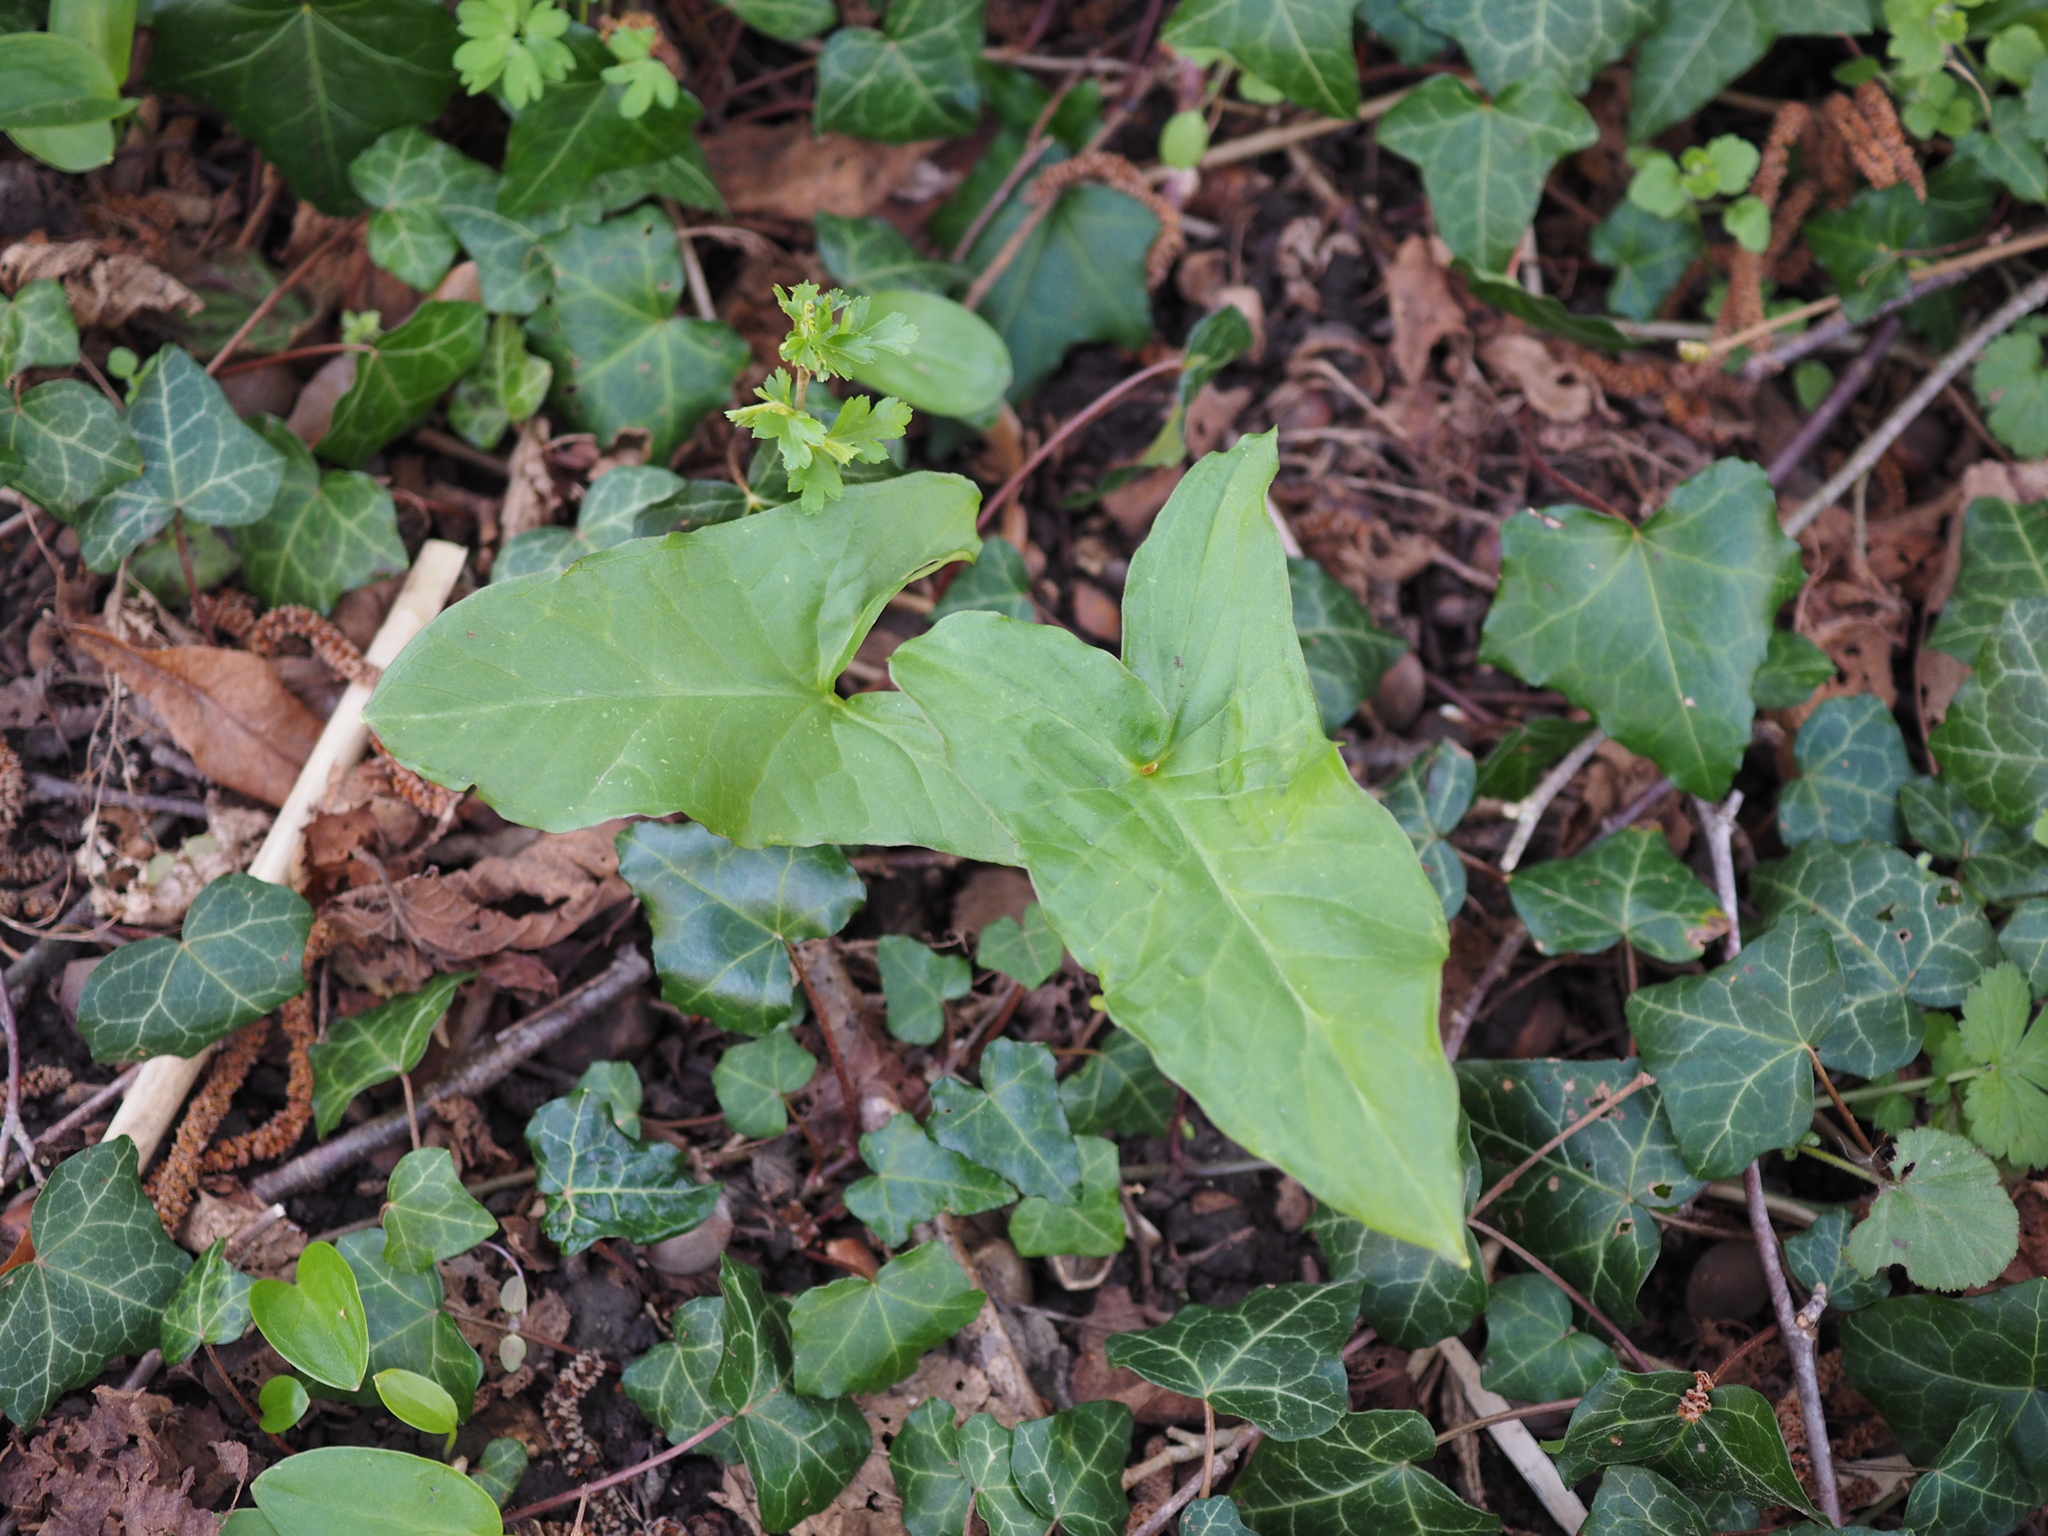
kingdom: Plantae
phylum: Tracheophyta
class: Liliopsida
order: Alismatales
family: Araceae
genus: Arum
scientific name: Arum maculatum
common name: Lords-and-ladies
